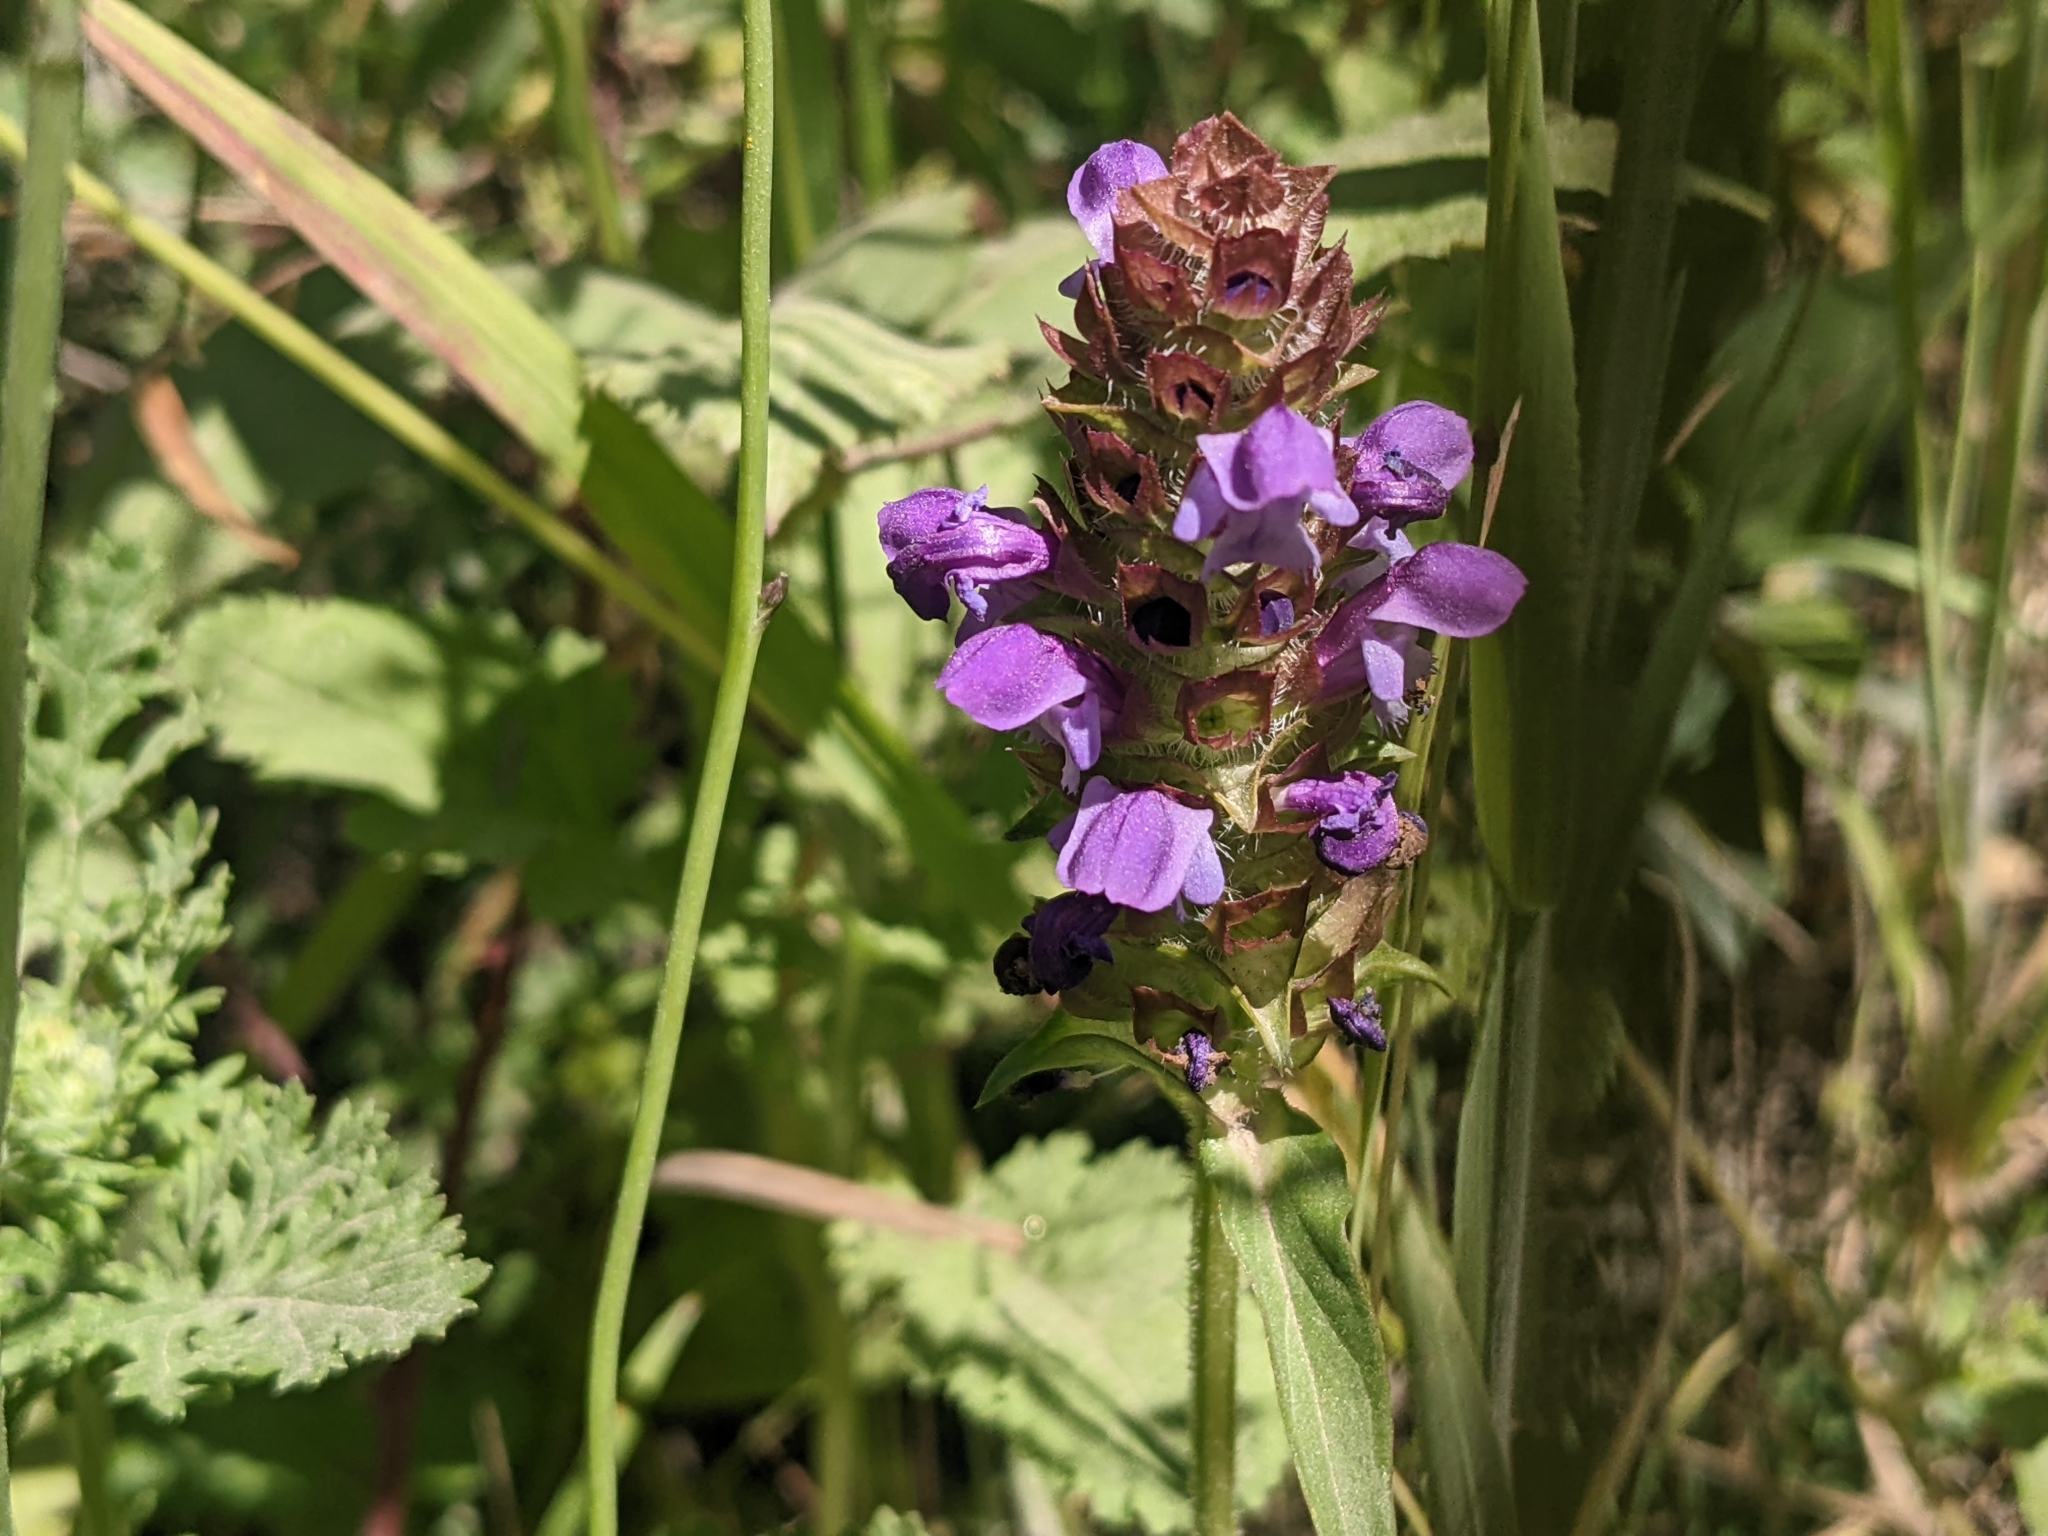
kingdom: Plantae
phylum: Tracheophyta
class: Magnoliopsida
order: Lamiales
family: Lamiaceae
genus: Prunella
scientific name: Prunella vulgaris
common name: Heal-all
